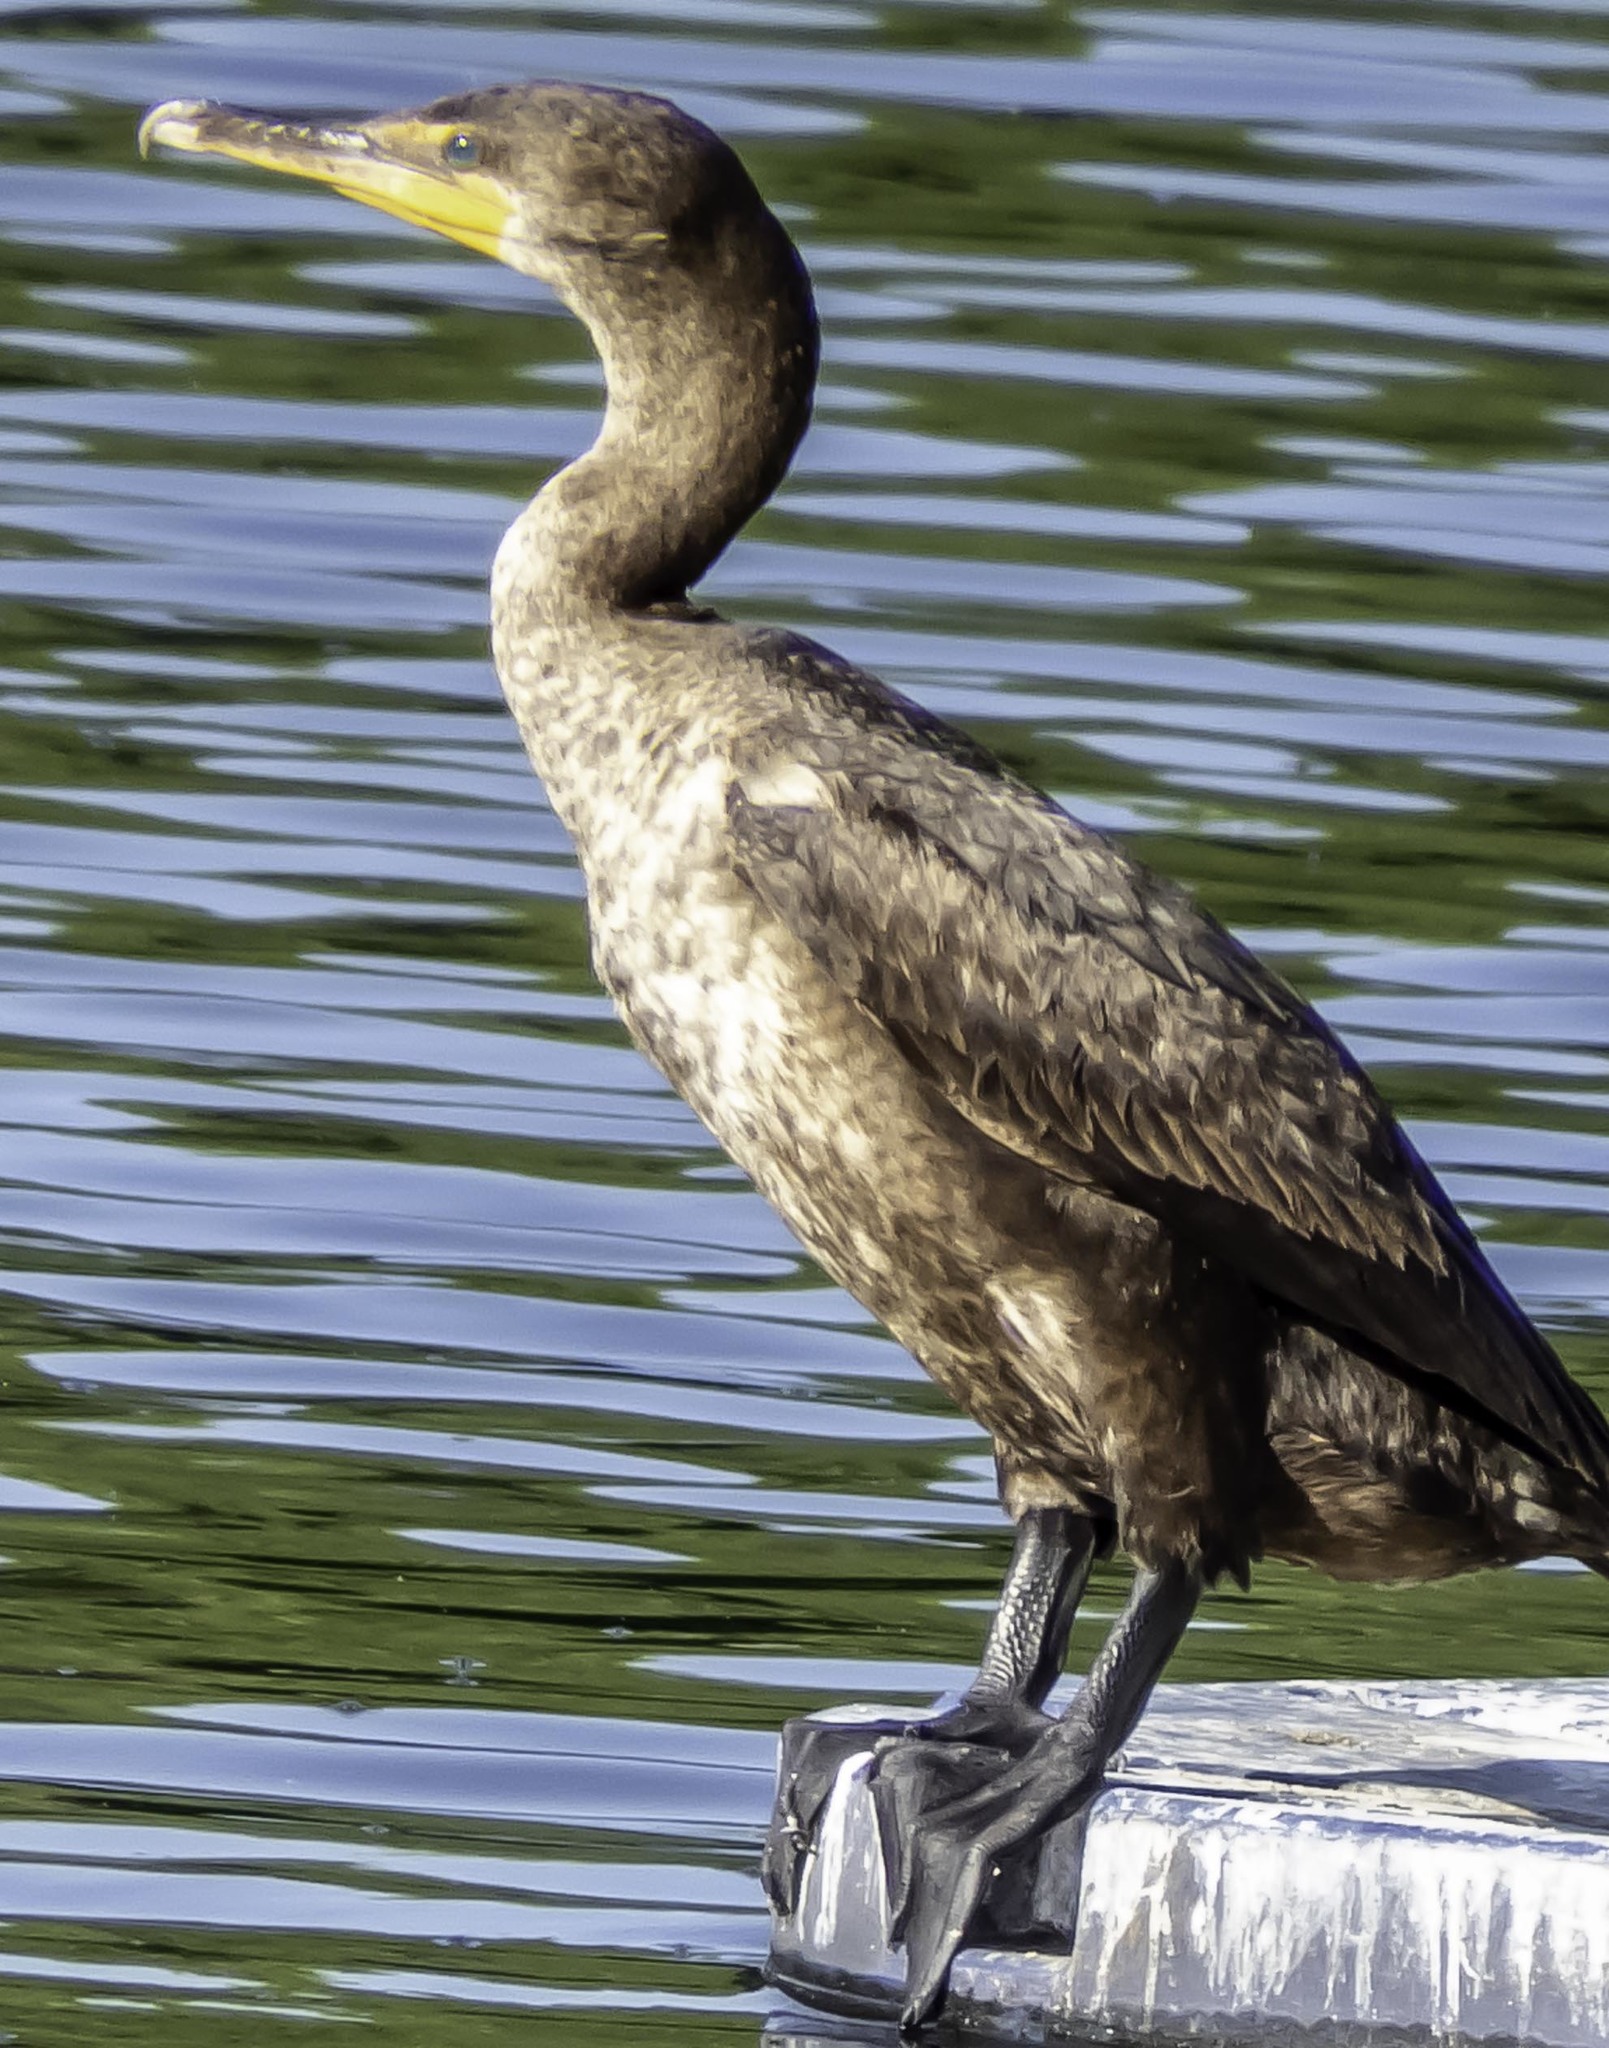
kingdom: Animalia
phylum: Chordata
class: Aves
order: Suliformes
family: Phalacrocoracidae
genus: Phalacrocorax
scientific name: Phalacrocorax auritus
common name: Double-crested cormorant
